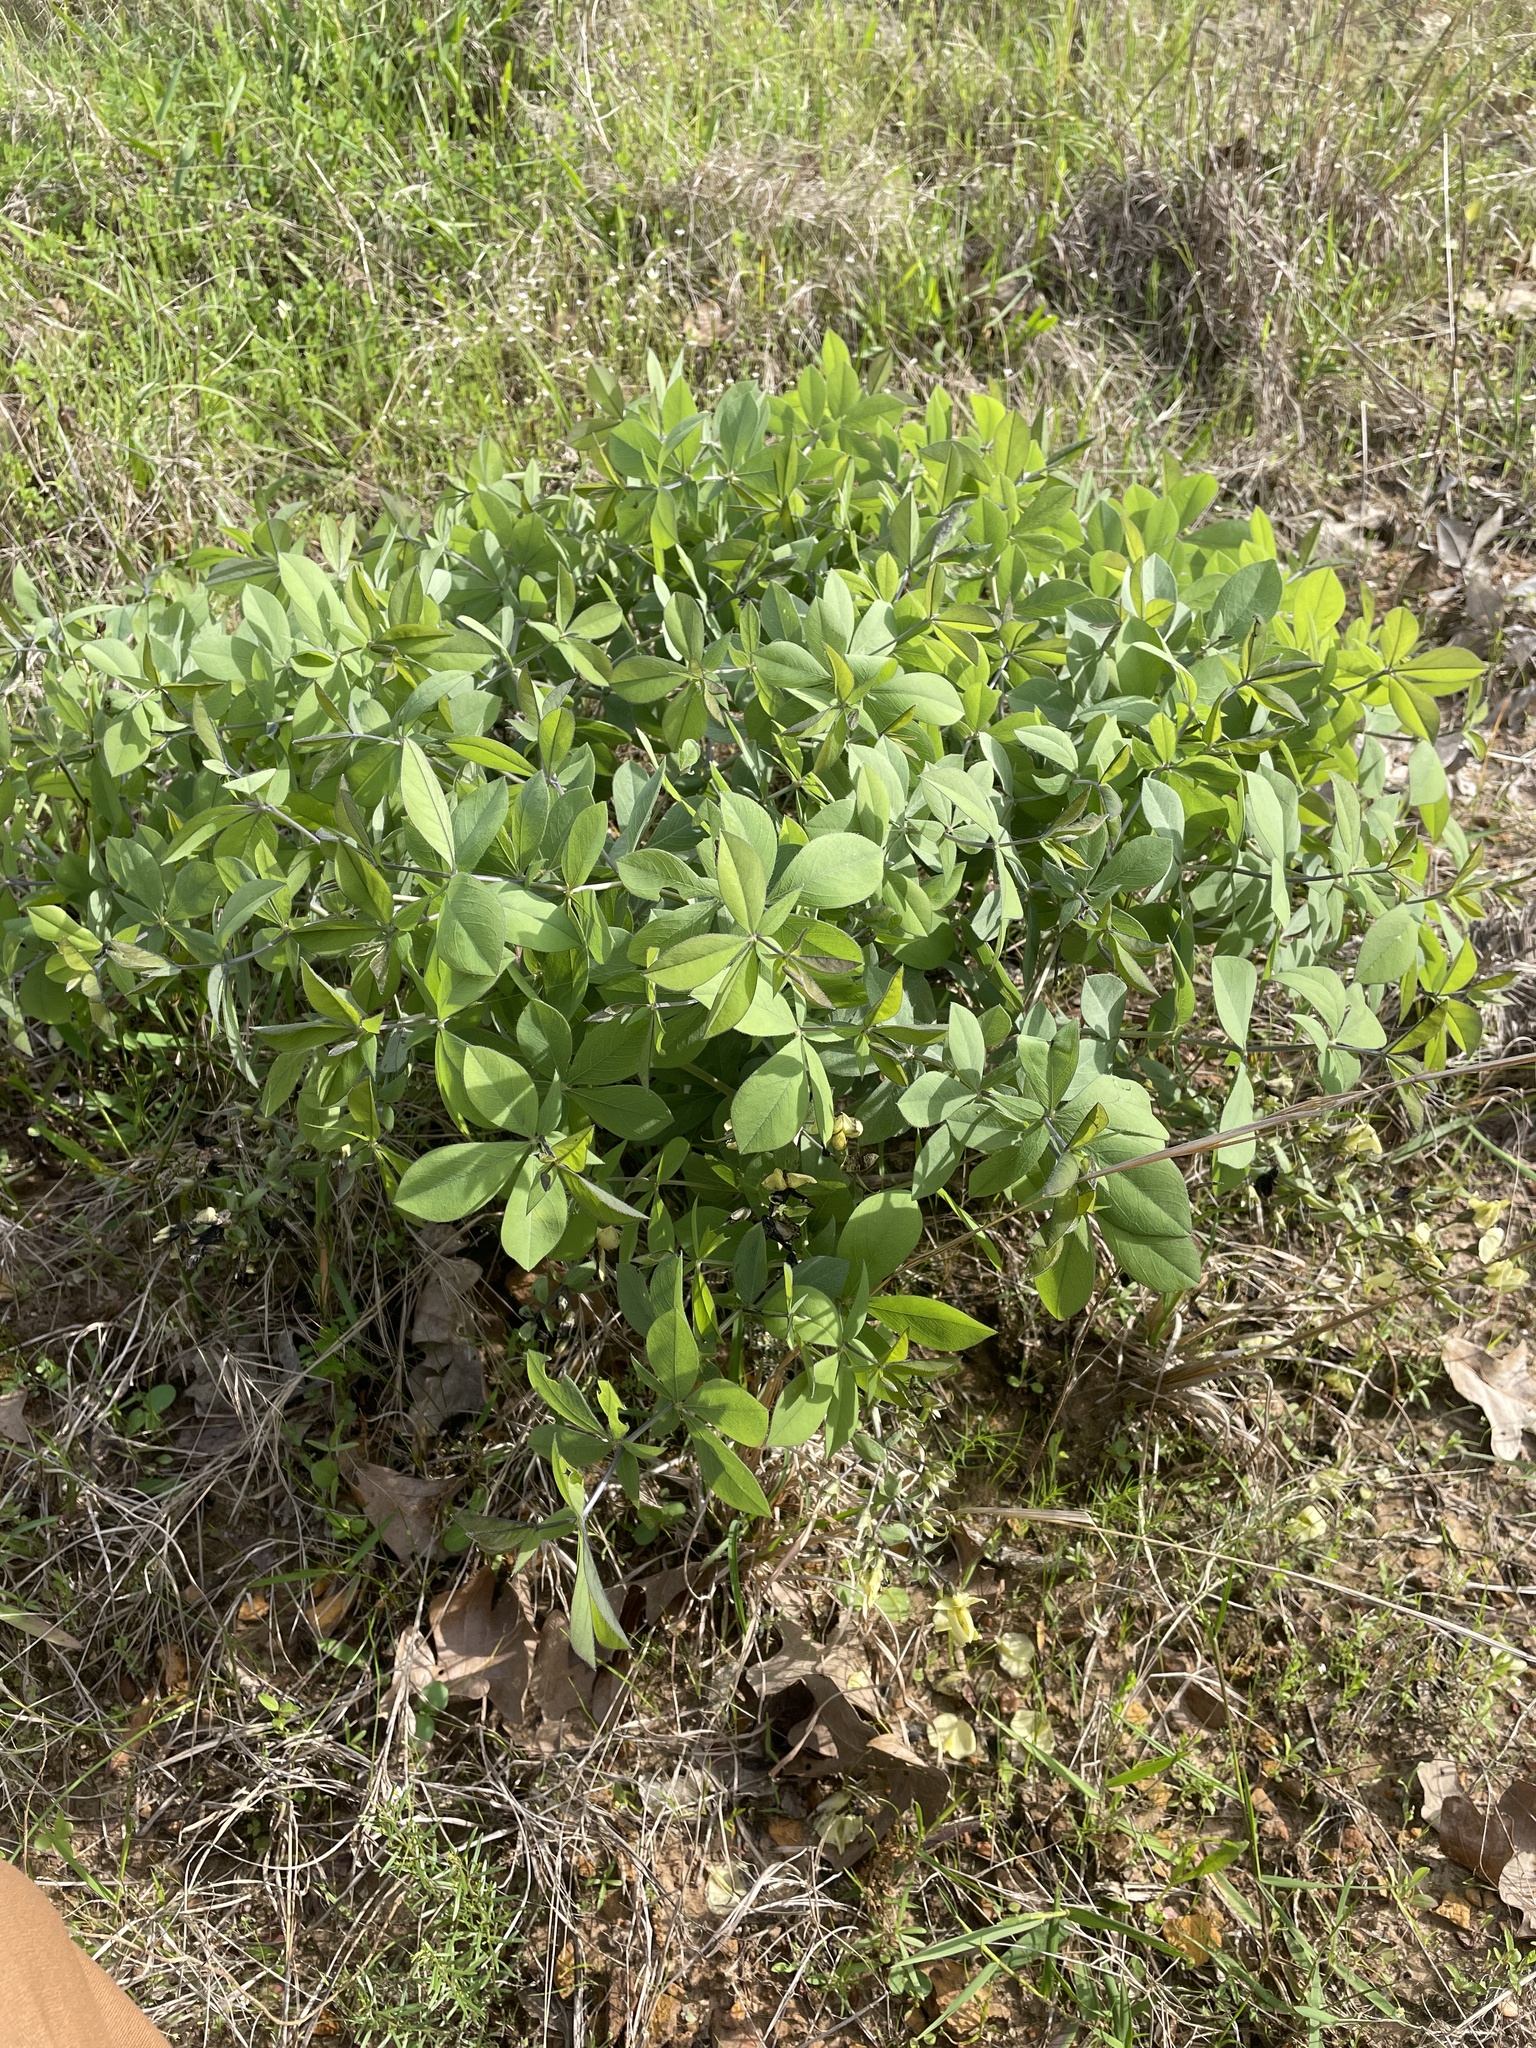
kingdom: Plantae
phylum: Tracheophyta
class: Magnoliopsida
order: Fabales
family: Fabaceae
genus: Baptisia
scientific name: Baptisia bracteata
